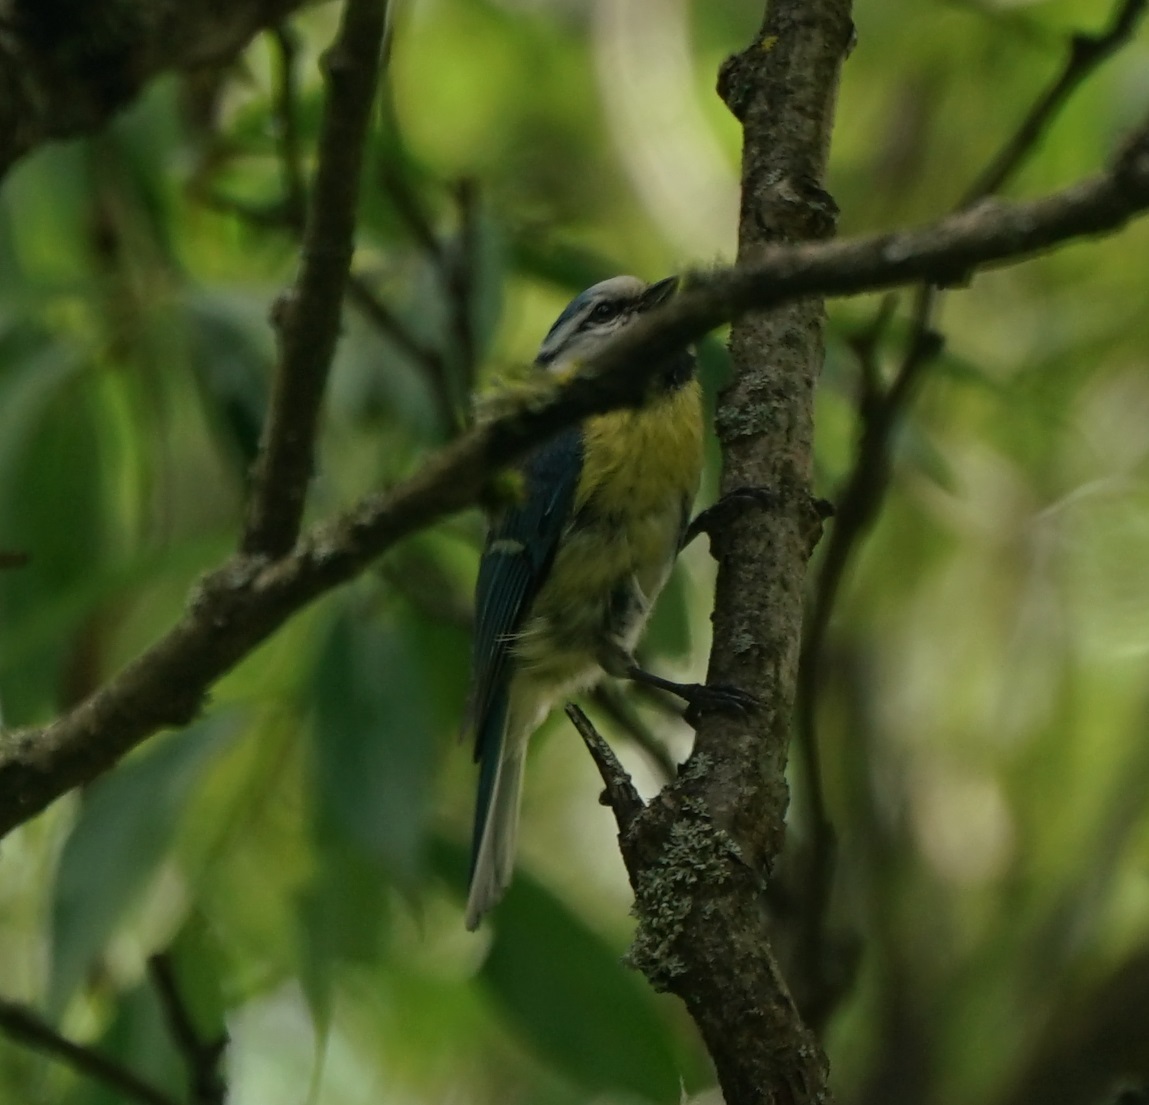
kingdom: Animalia
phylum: Chordata
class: Aves
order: Passeriformes
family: Paridae
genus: Cyanistes
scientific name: Cyanistes caeruleus
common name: Eurasian blue tit
